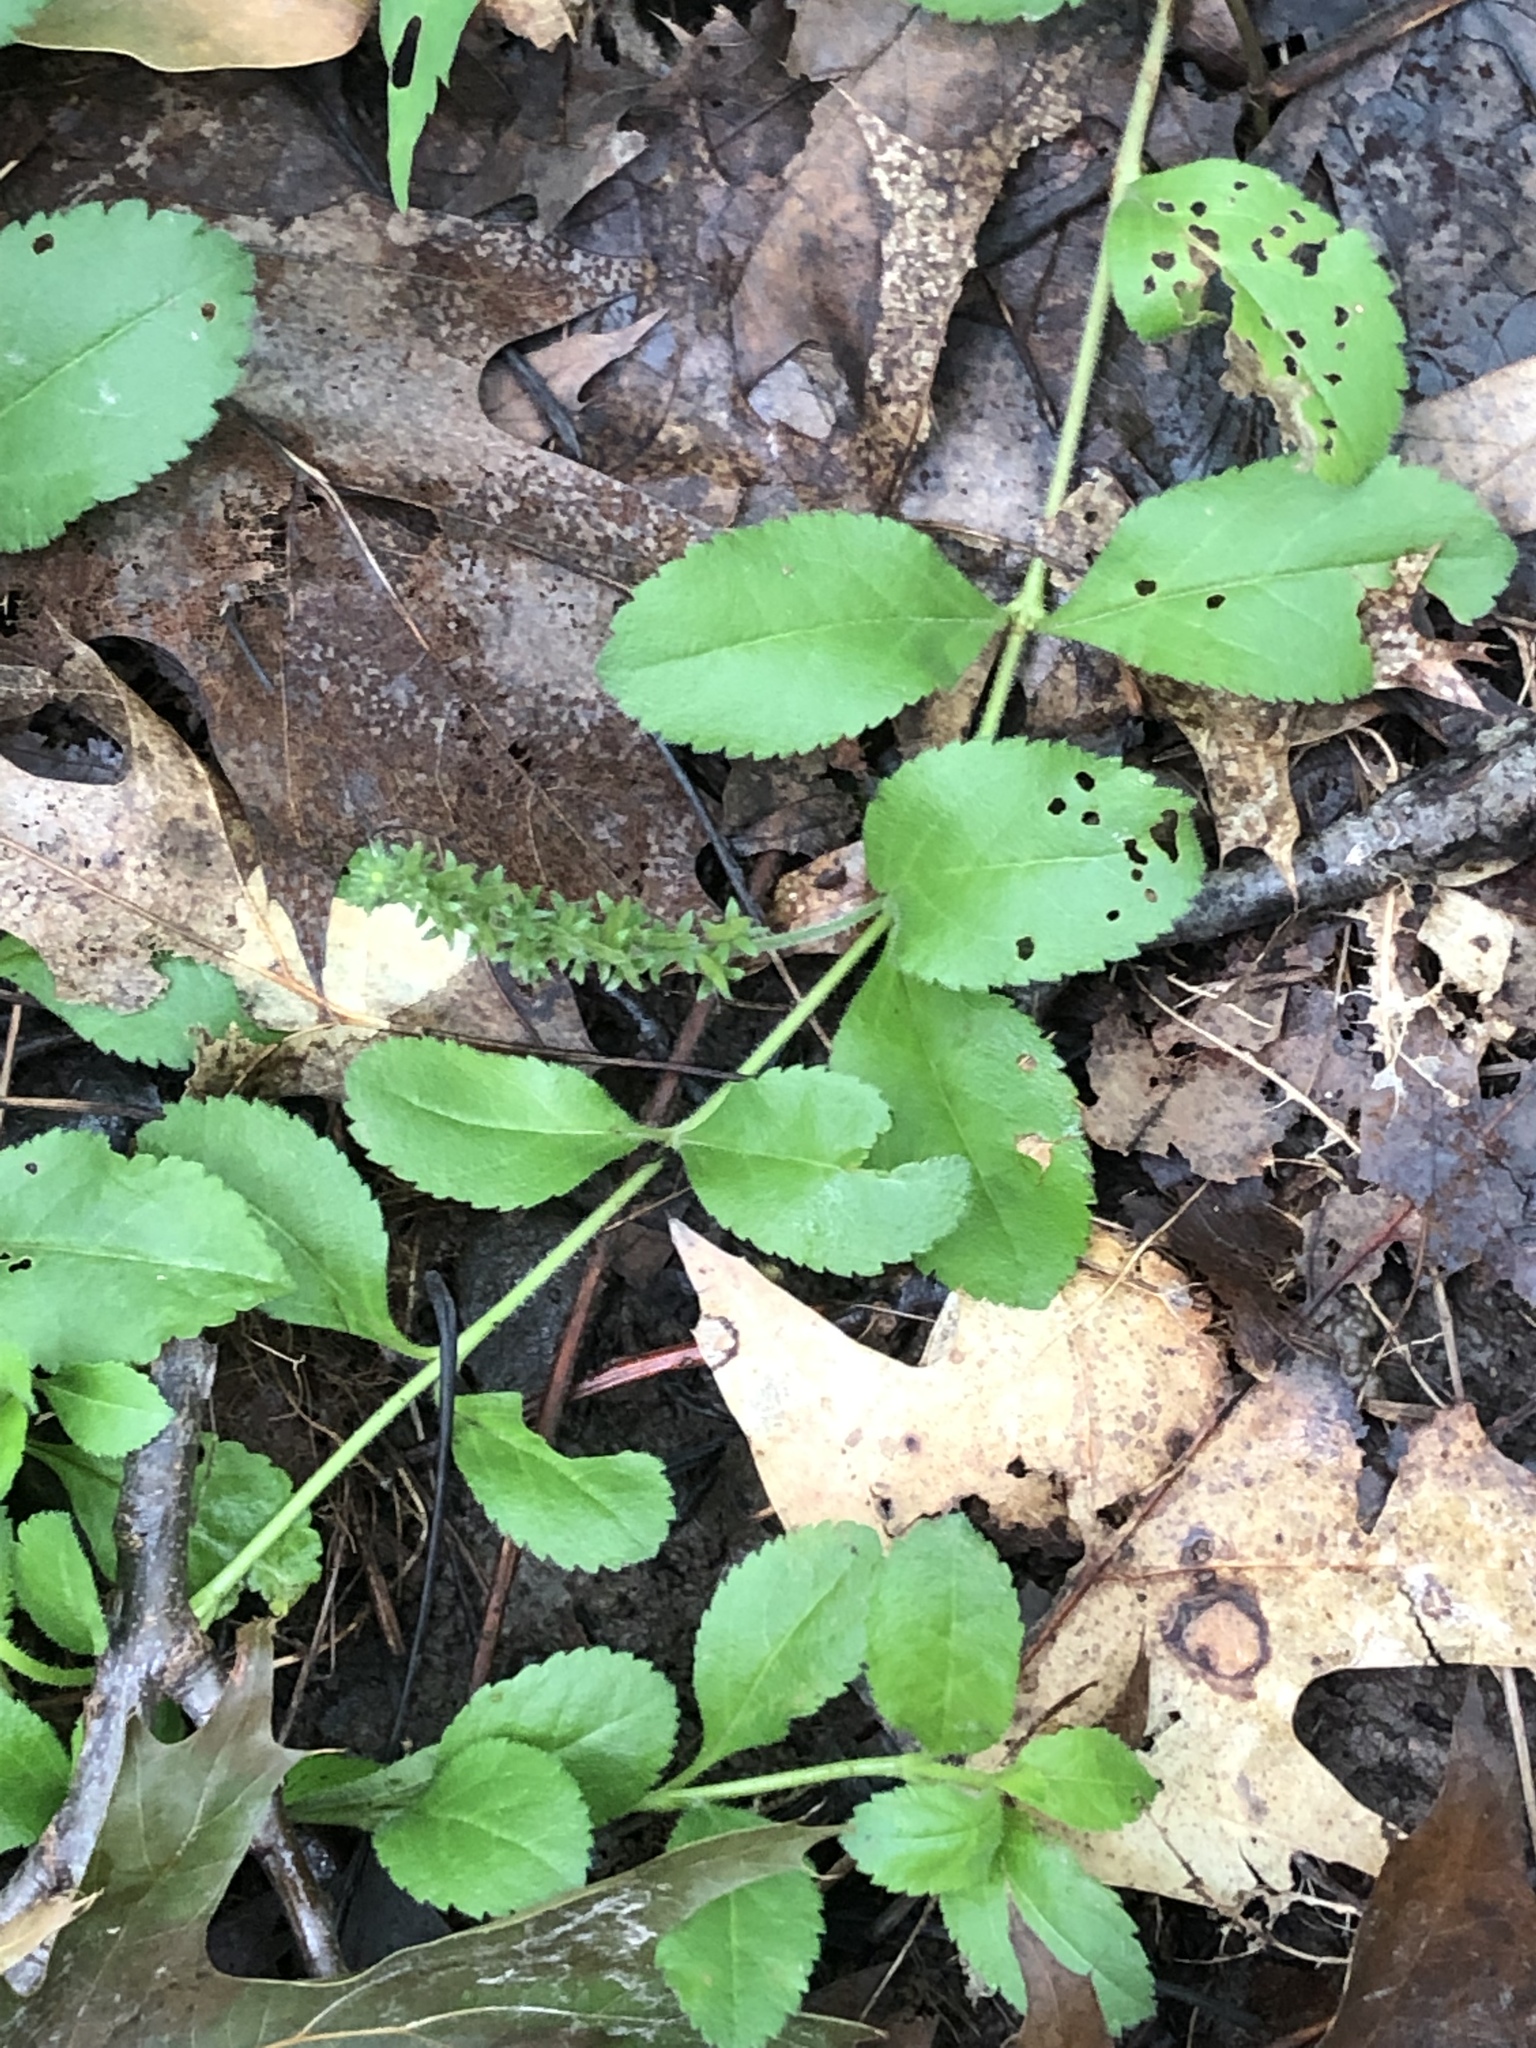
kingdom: Plantae
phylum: Tracheophyta
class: Magnoliopsida
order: Lamiales
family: Plantaginaceae
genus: Veronica
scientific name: Veronica officinalis
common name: Common speedwell
